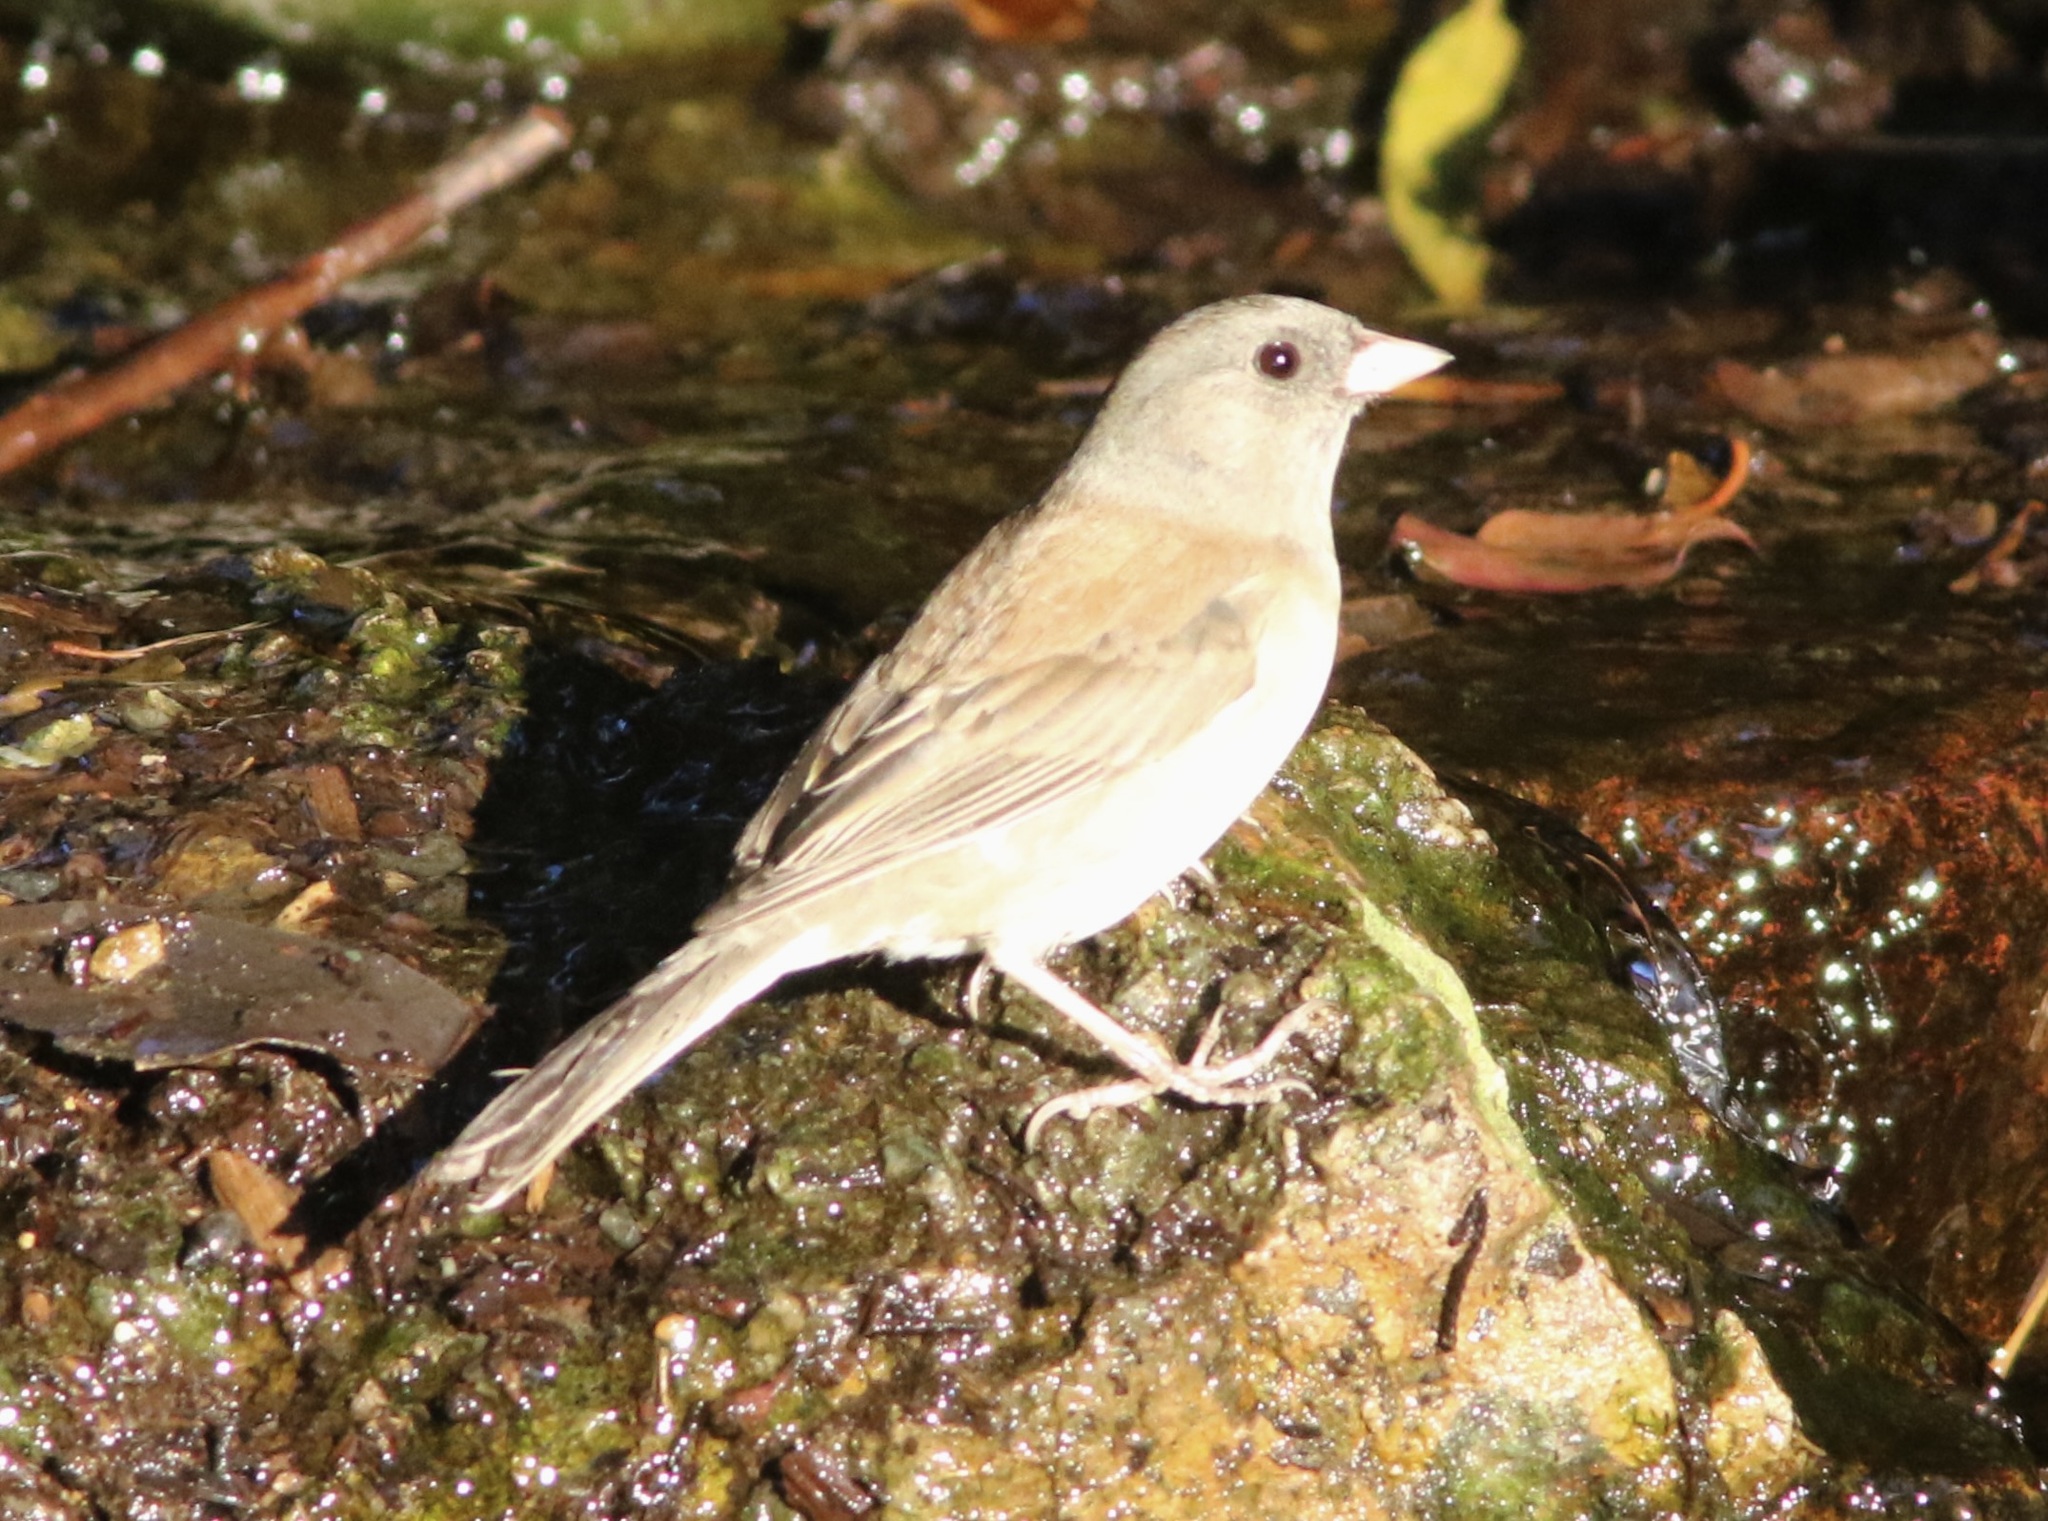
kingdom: Animalia
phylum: Chordata
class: Aves
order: Passeriformes
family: Passerellidae
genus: Junco
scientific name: Junco hyemalis
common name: Dark-eyed junco
